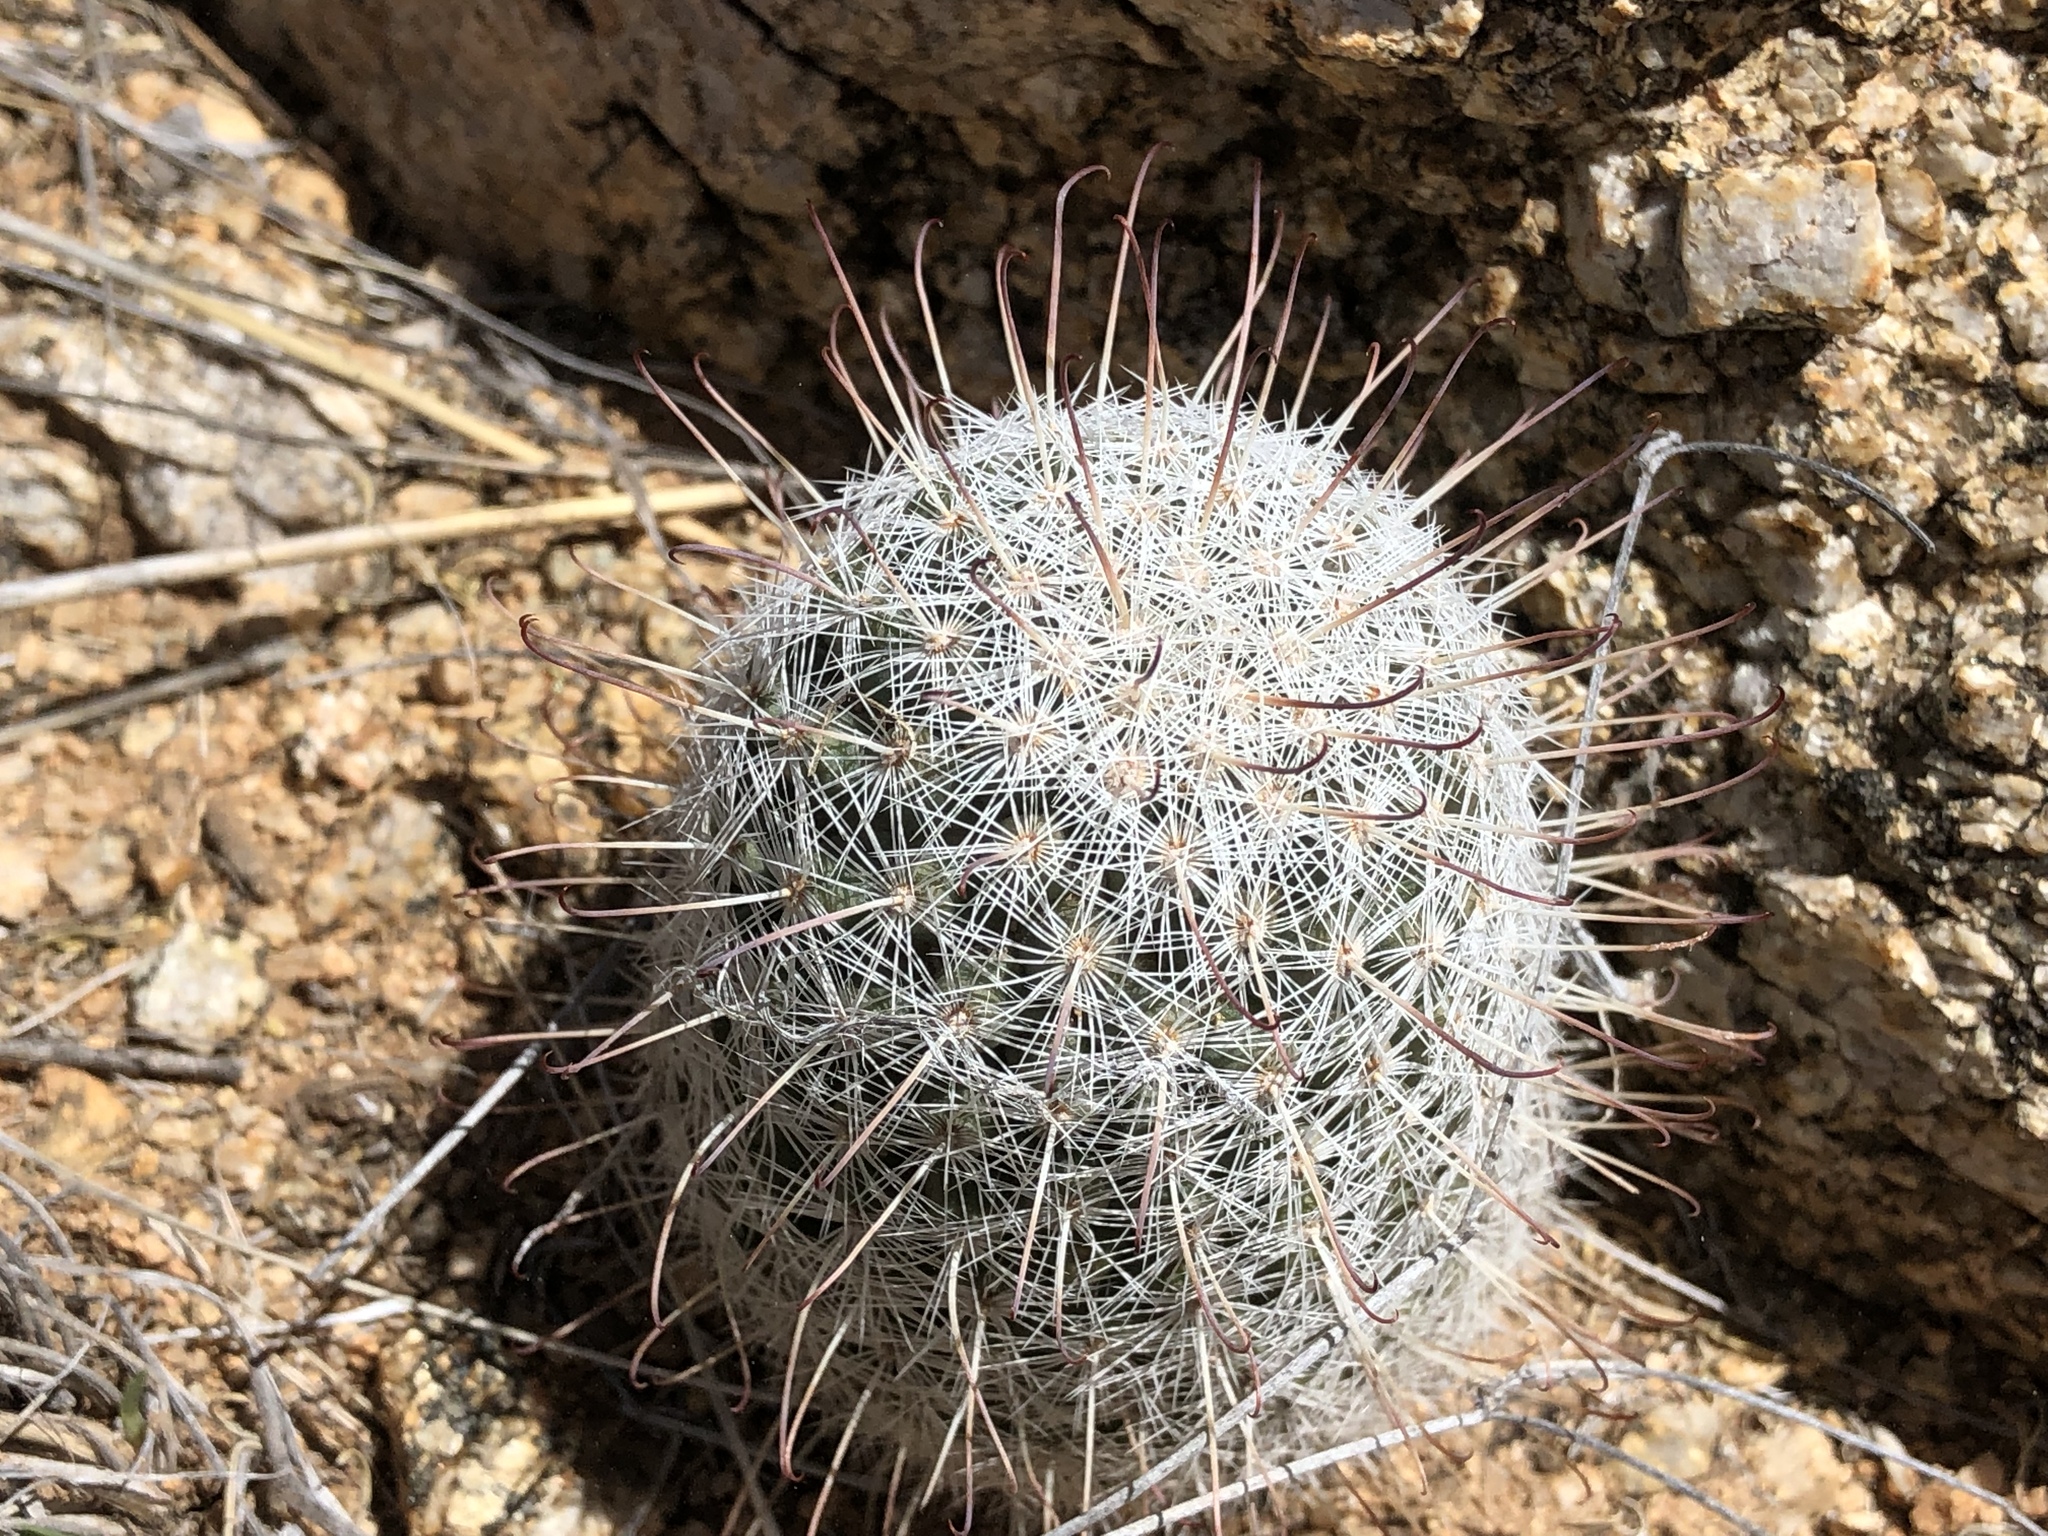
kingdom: Plantae
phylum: Tracheophyta
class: Magnoliopsida
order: Caryophyllales
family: Cactaceae
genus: Cochemiea
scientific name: Cochemiea grahamii
